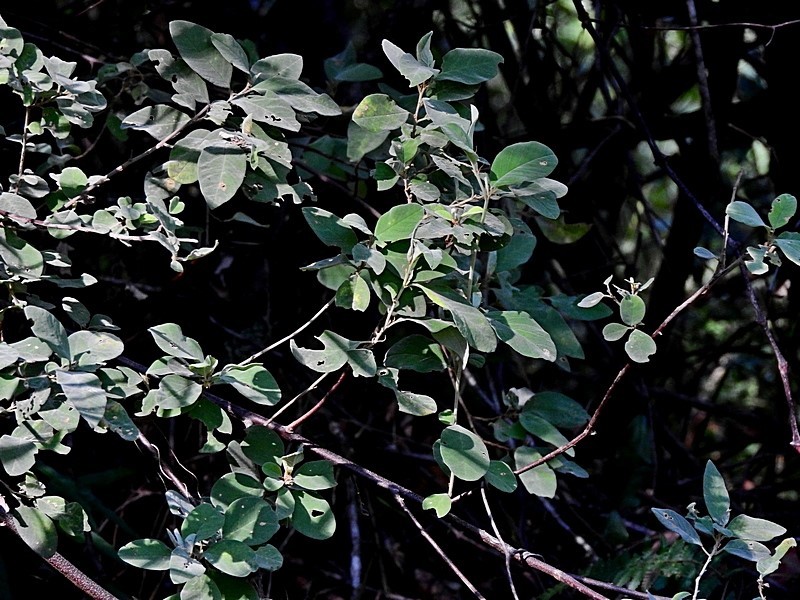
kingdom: Plantae
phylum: Tracheophyta
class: Magnoliopsida
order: Rosales
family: Rhamnaceae
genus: Pomaderris
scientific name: Pomaderris cinerea
